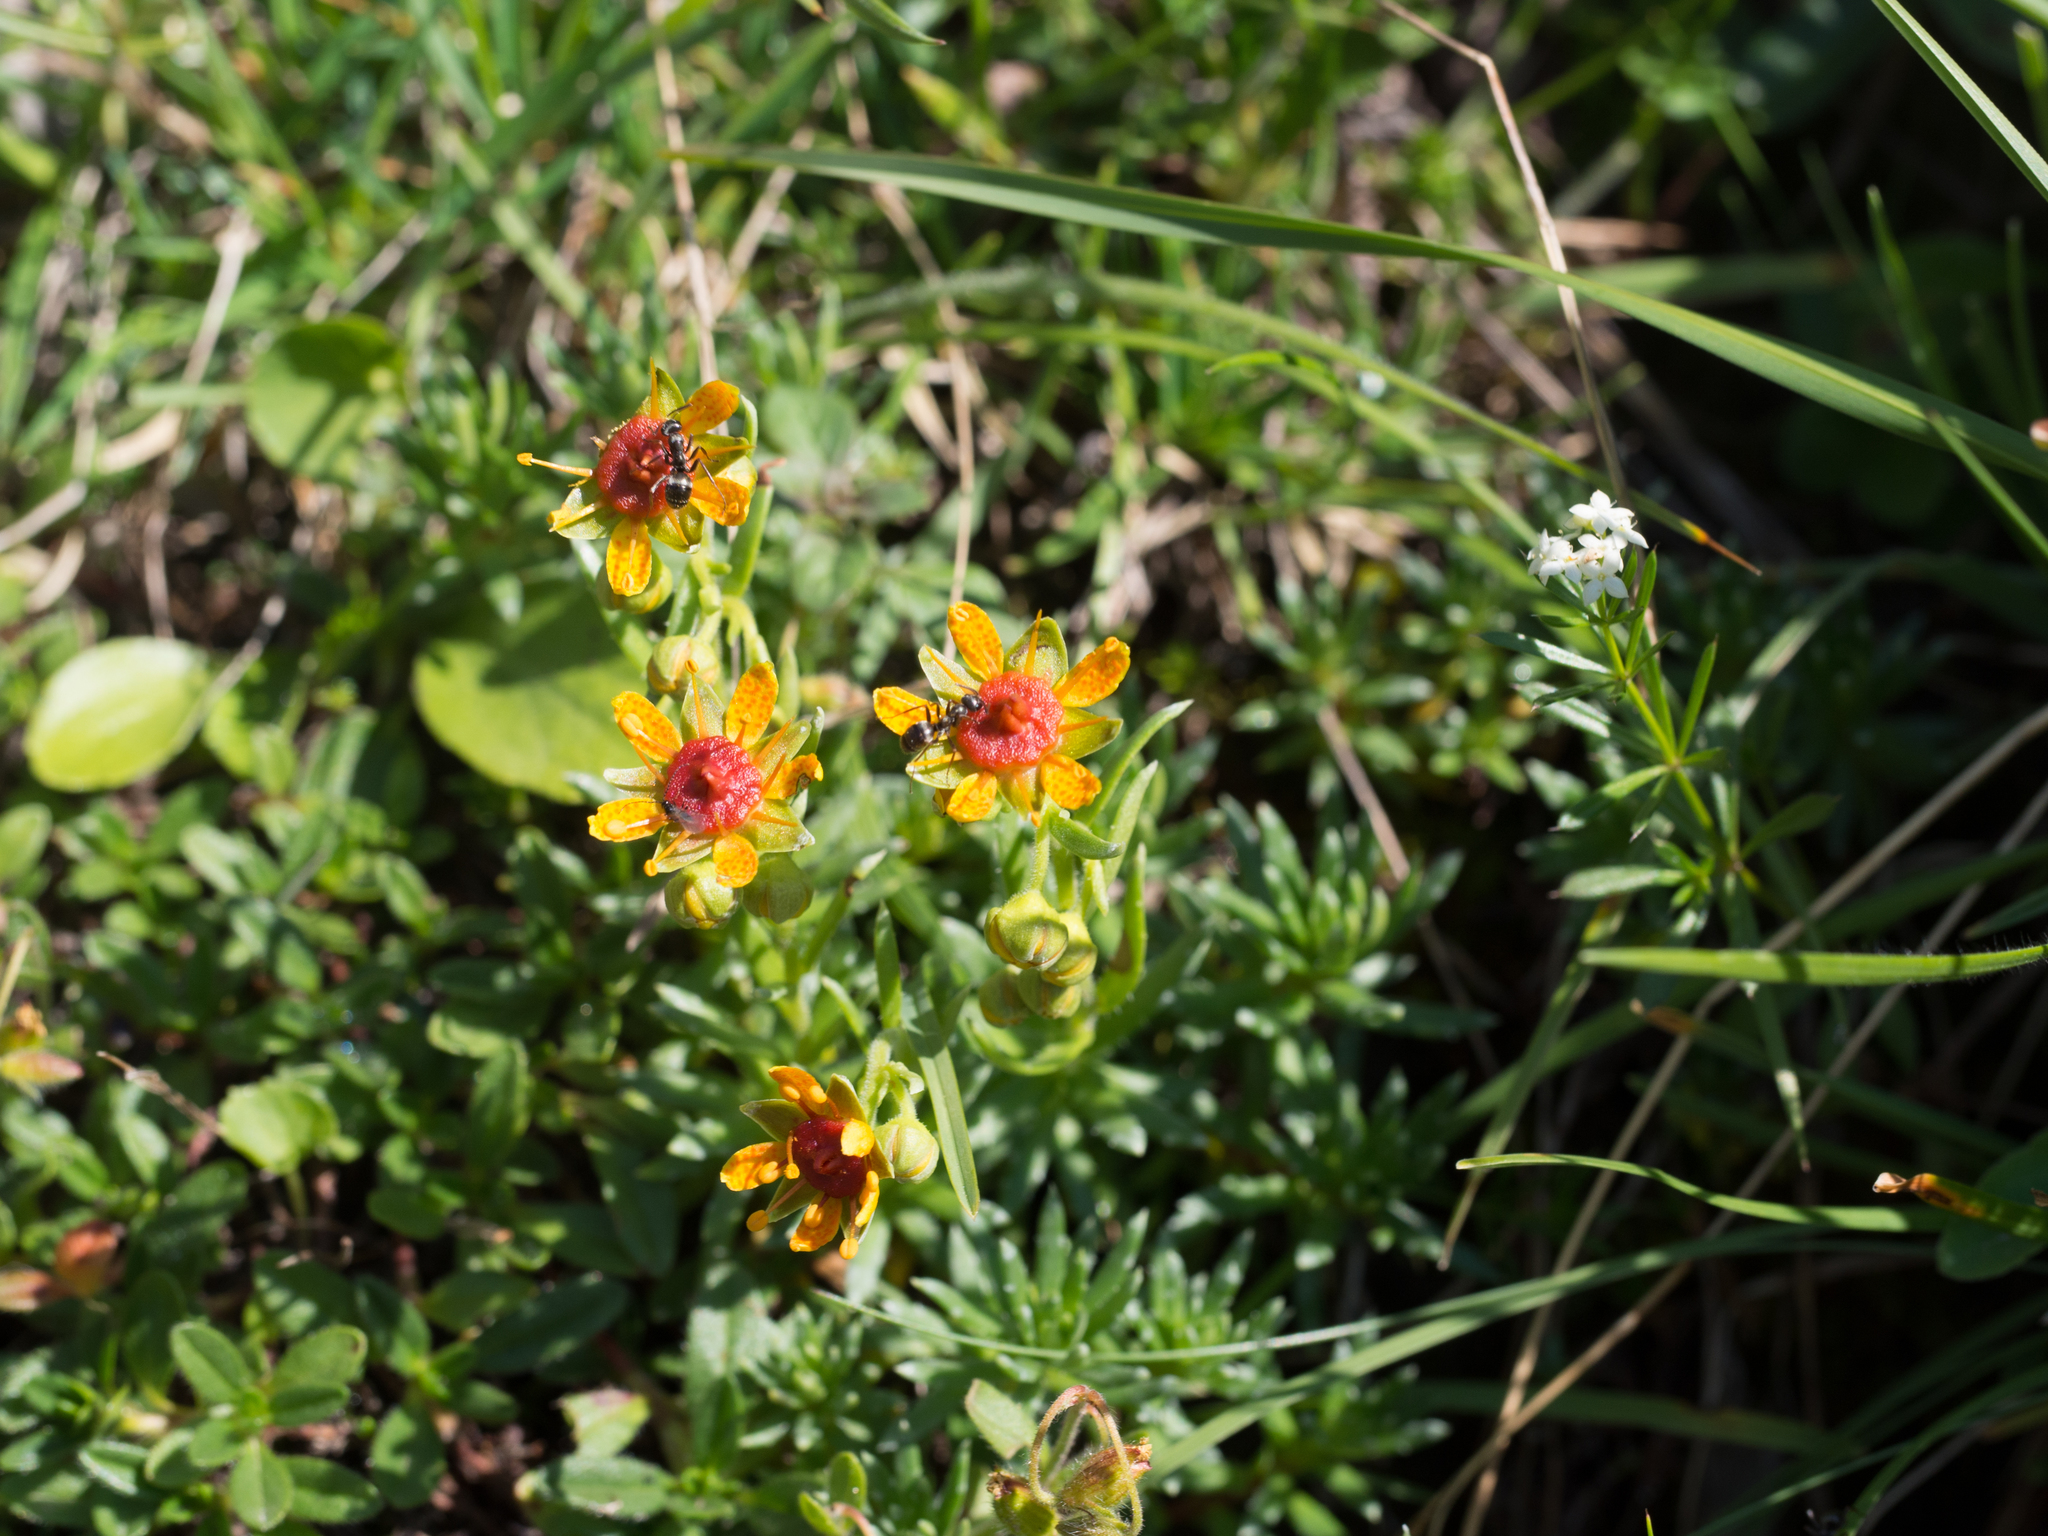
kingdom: Plantae
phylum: Tracheophyta
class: Magnoliopsida
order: Saxifragales
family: Saxifragaceae
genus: Saxifraga
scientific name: Saxifraga aizoides
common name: Yellow mountain saxifrage
